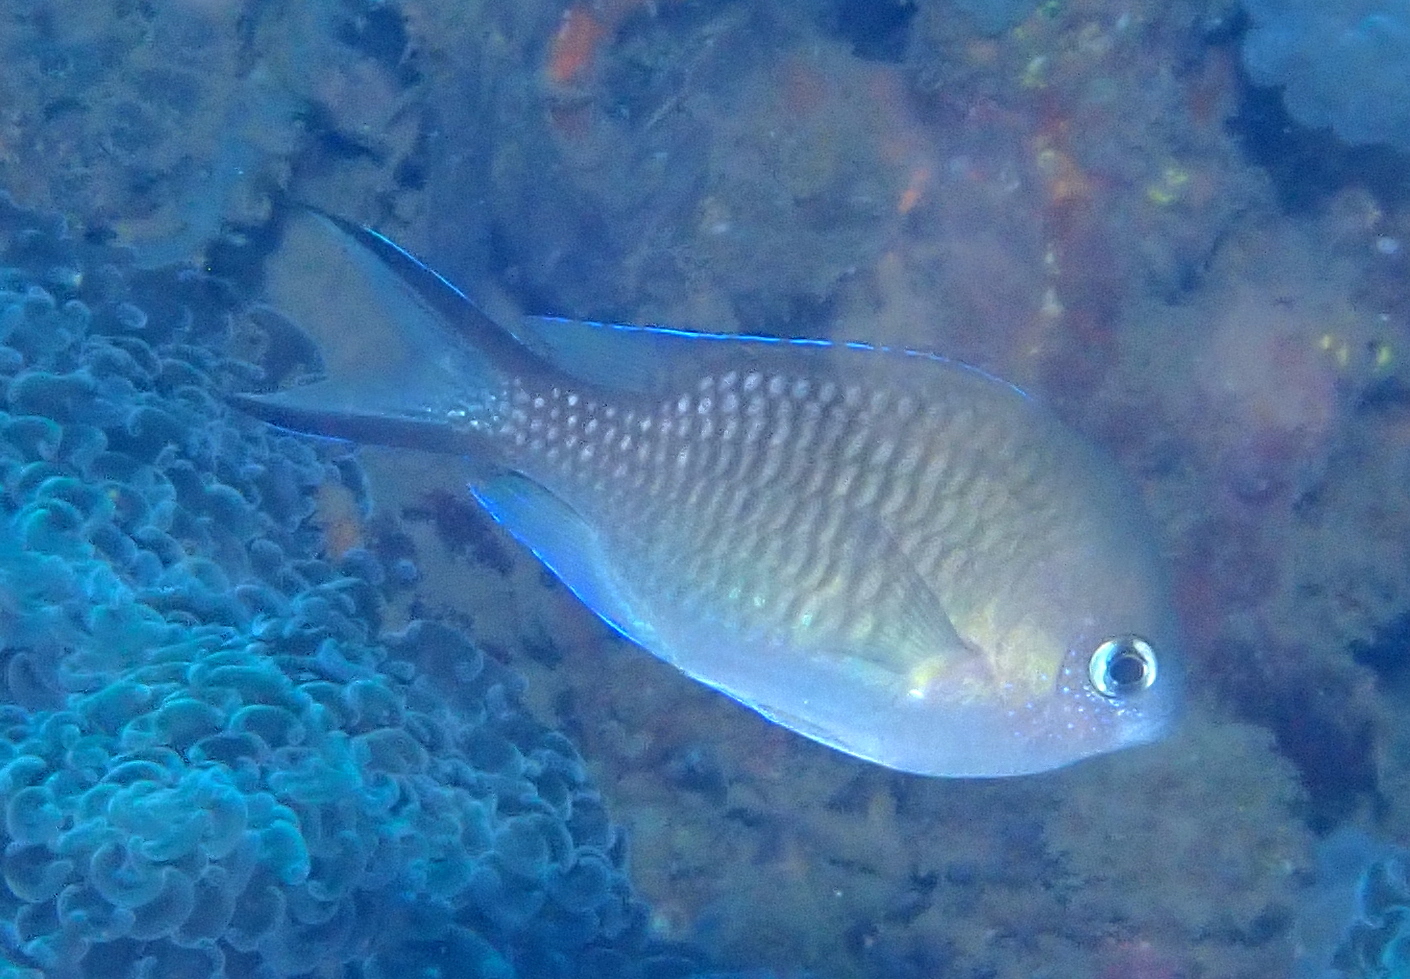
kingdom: Animalia
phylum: Chordata
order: Perciformes
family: Pomacentridae
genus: Chromis
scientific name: Chromis ternatensis
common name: Ternate chromis
